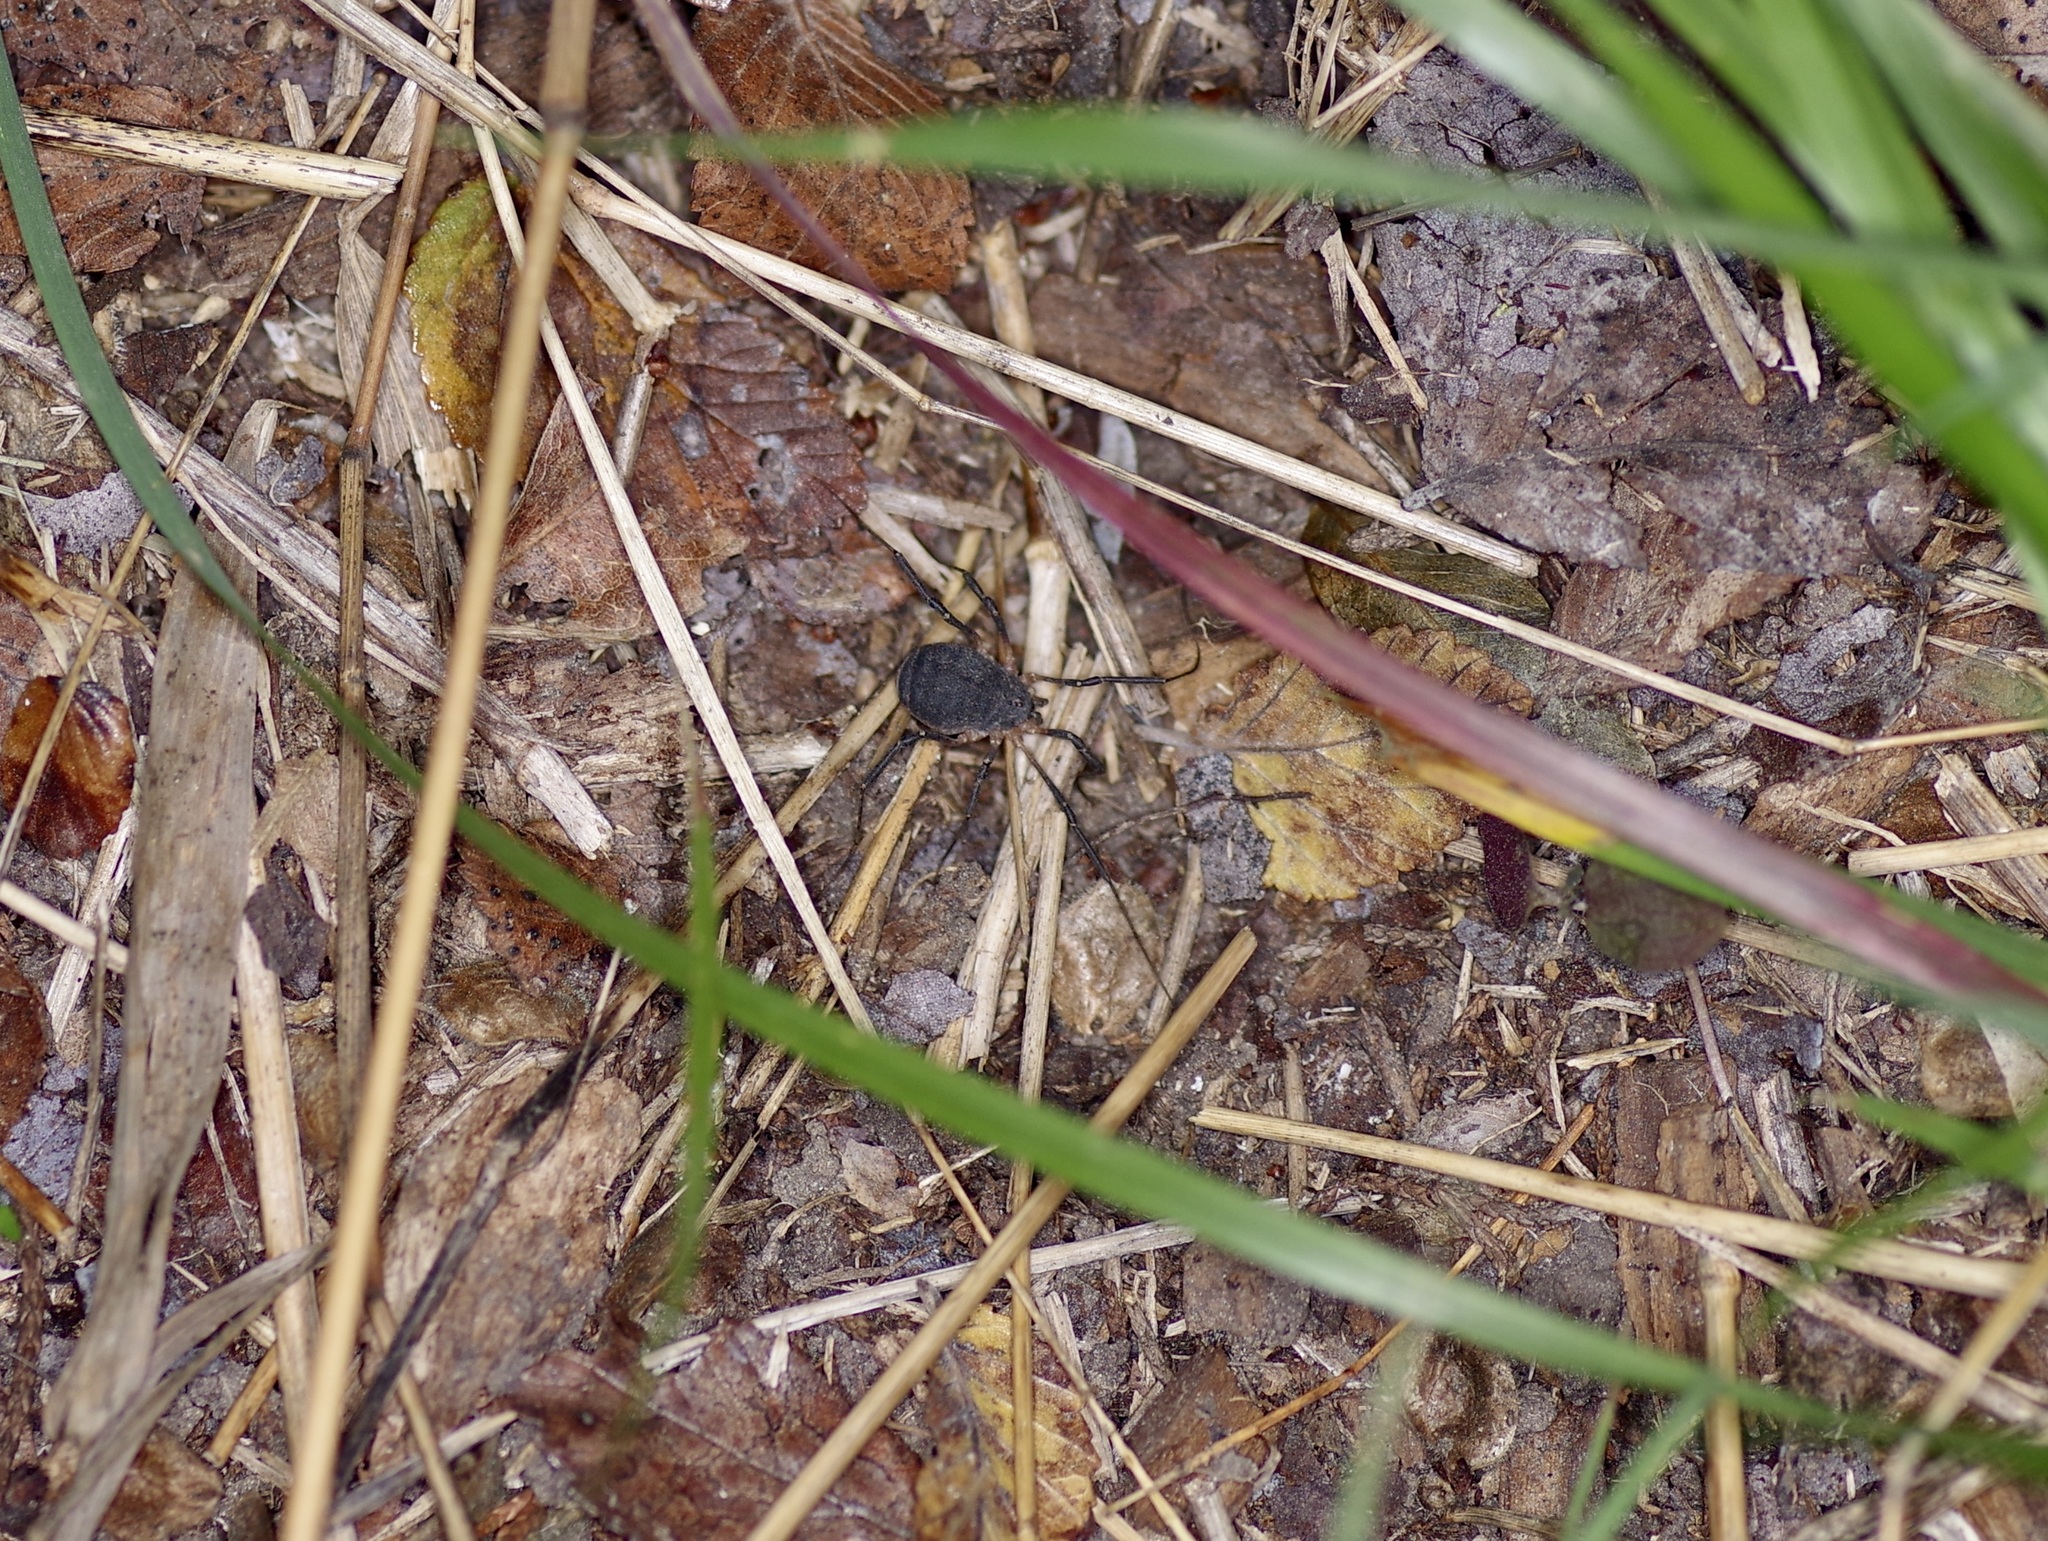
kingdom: Animalia
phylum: Arthropoda
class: Arachnida
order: Opiliones
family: Sclerosomatidae
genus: Eumesosoma
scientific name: Eumesosoma roeweri
